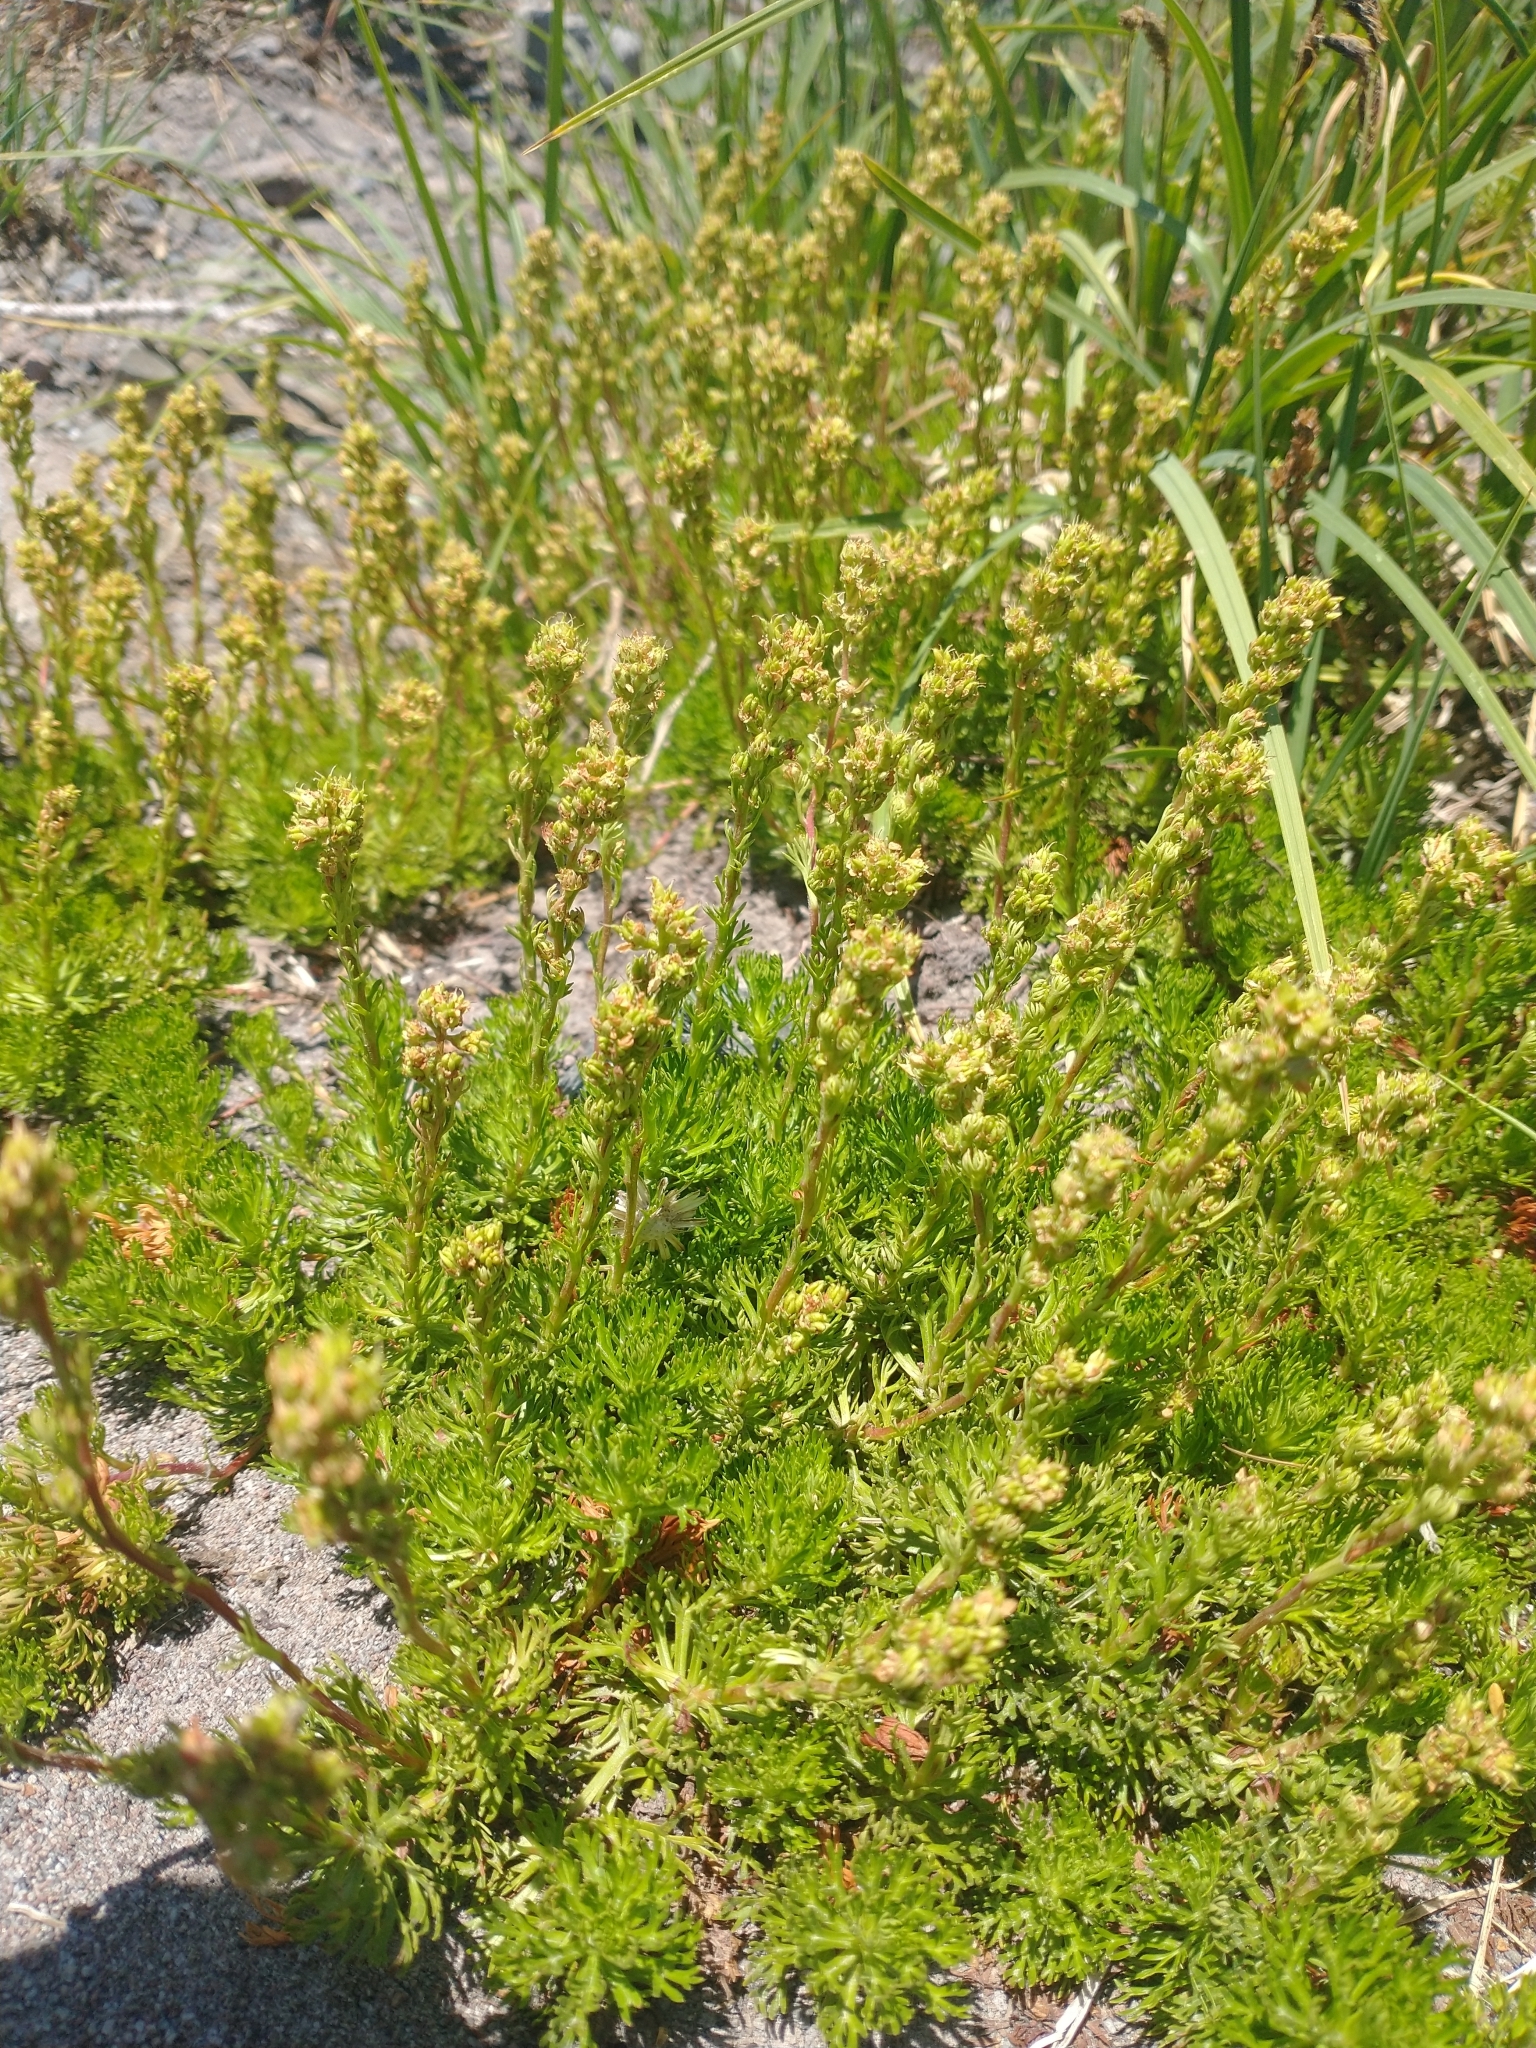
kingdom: Plantae
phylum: Tracheophyta
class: Magnoliopsida
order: Rosales
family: Rosaceae
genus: Luetkea
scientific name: Luetkea pectinata
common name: Partridgefoot
